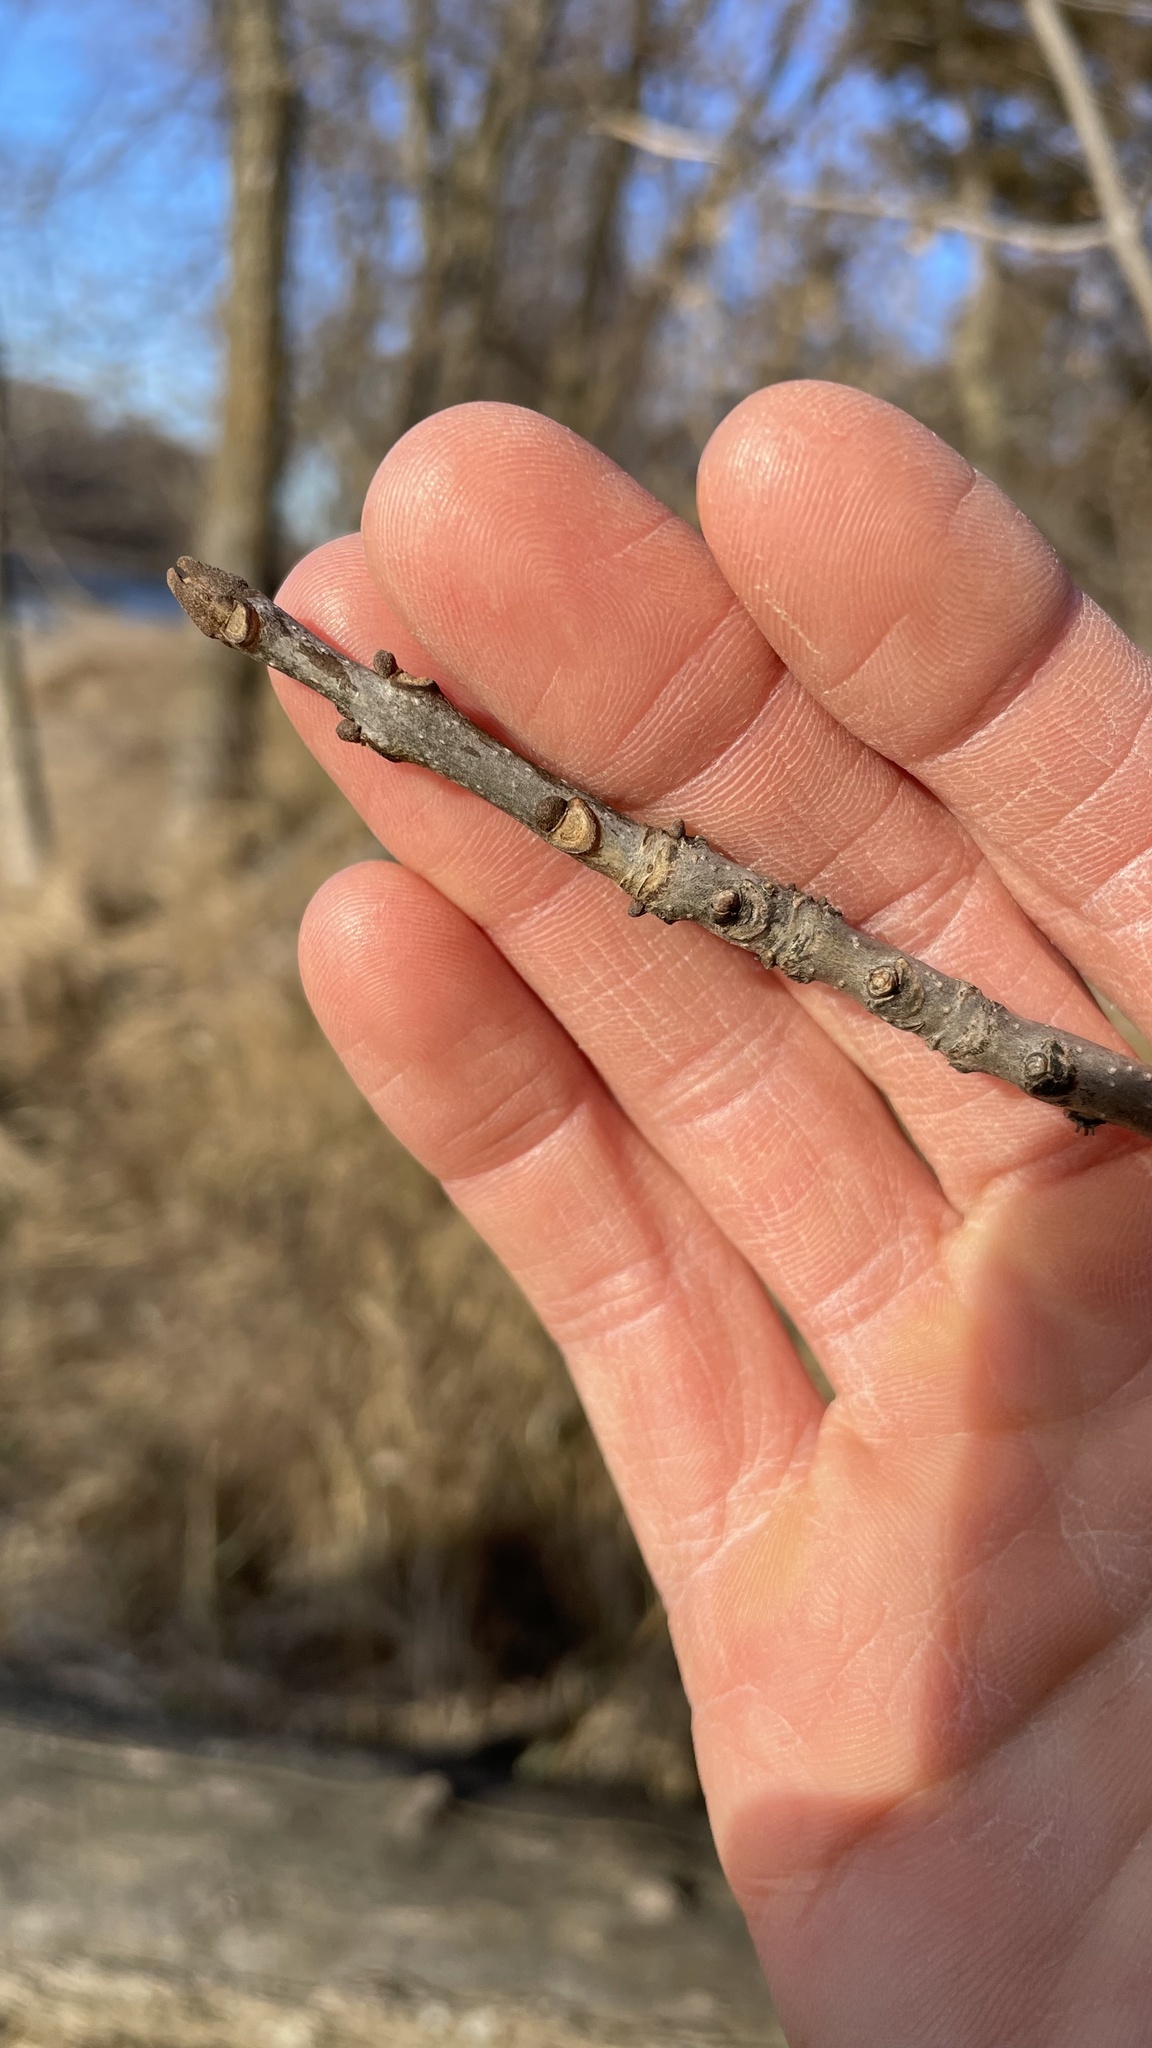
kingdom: Plantae
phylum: Tracheophyta
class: Magnoliopsida
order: Lamiales
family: Oleaceae
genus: Fraxinus
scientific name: Fraxinus nigra
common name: Black ash
